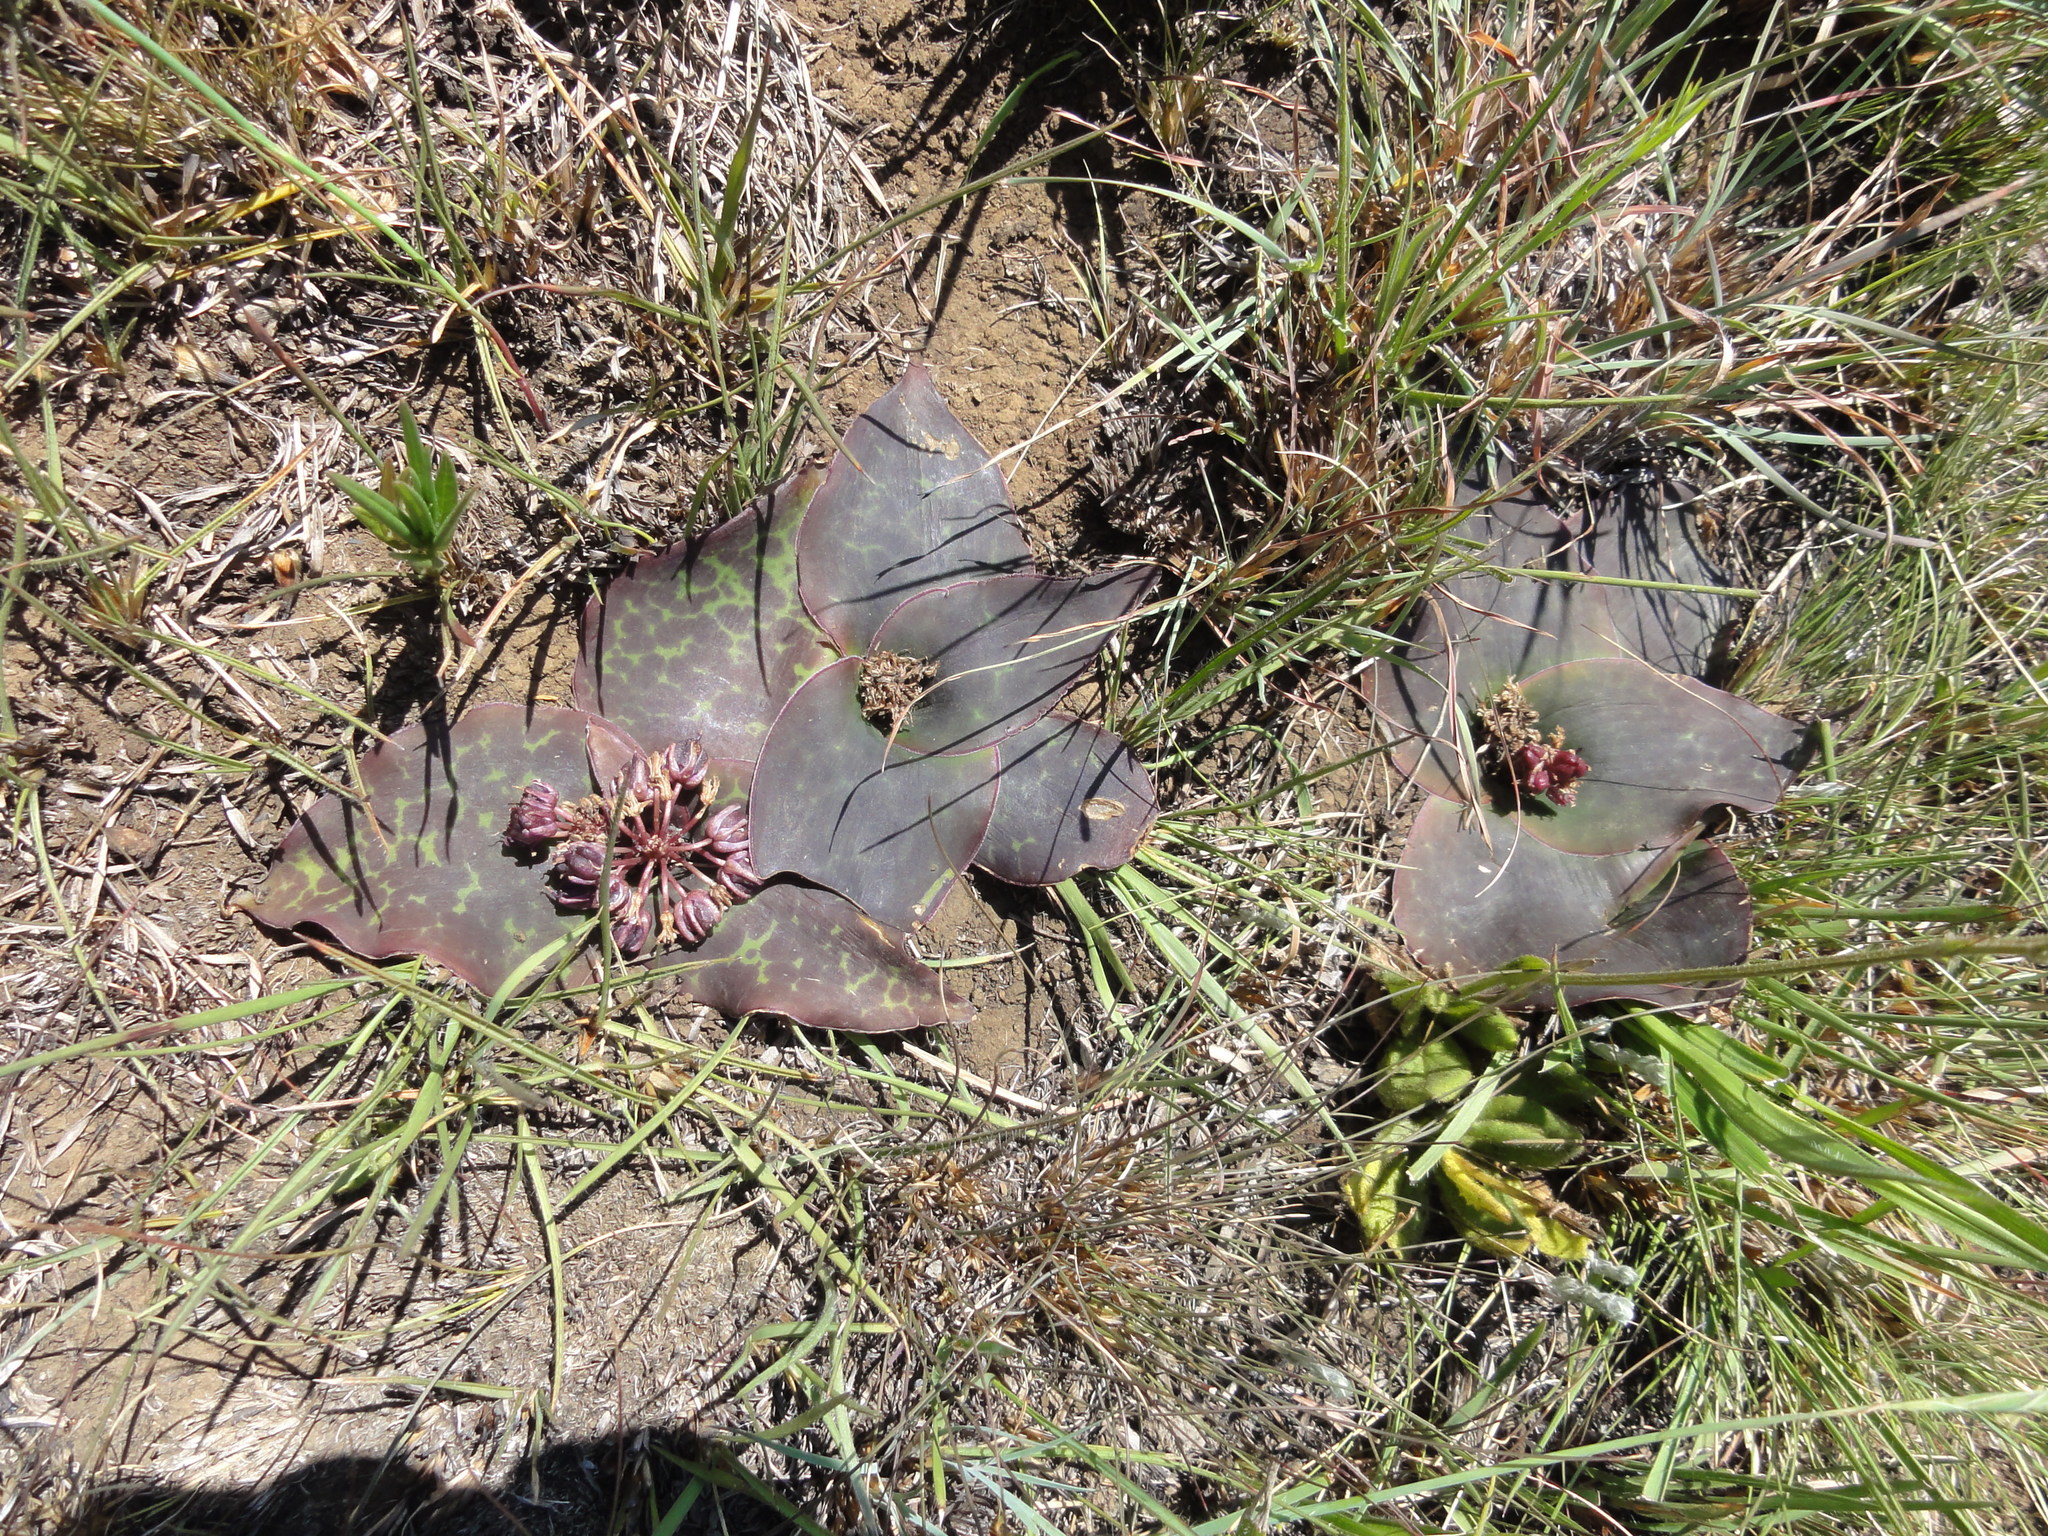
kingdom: Plantae
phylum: Tracheophyta
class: Liliopsida
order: Asparagales
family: Asparagaceae
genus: Ledebouria
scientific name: Ledebouria ovatifolia
